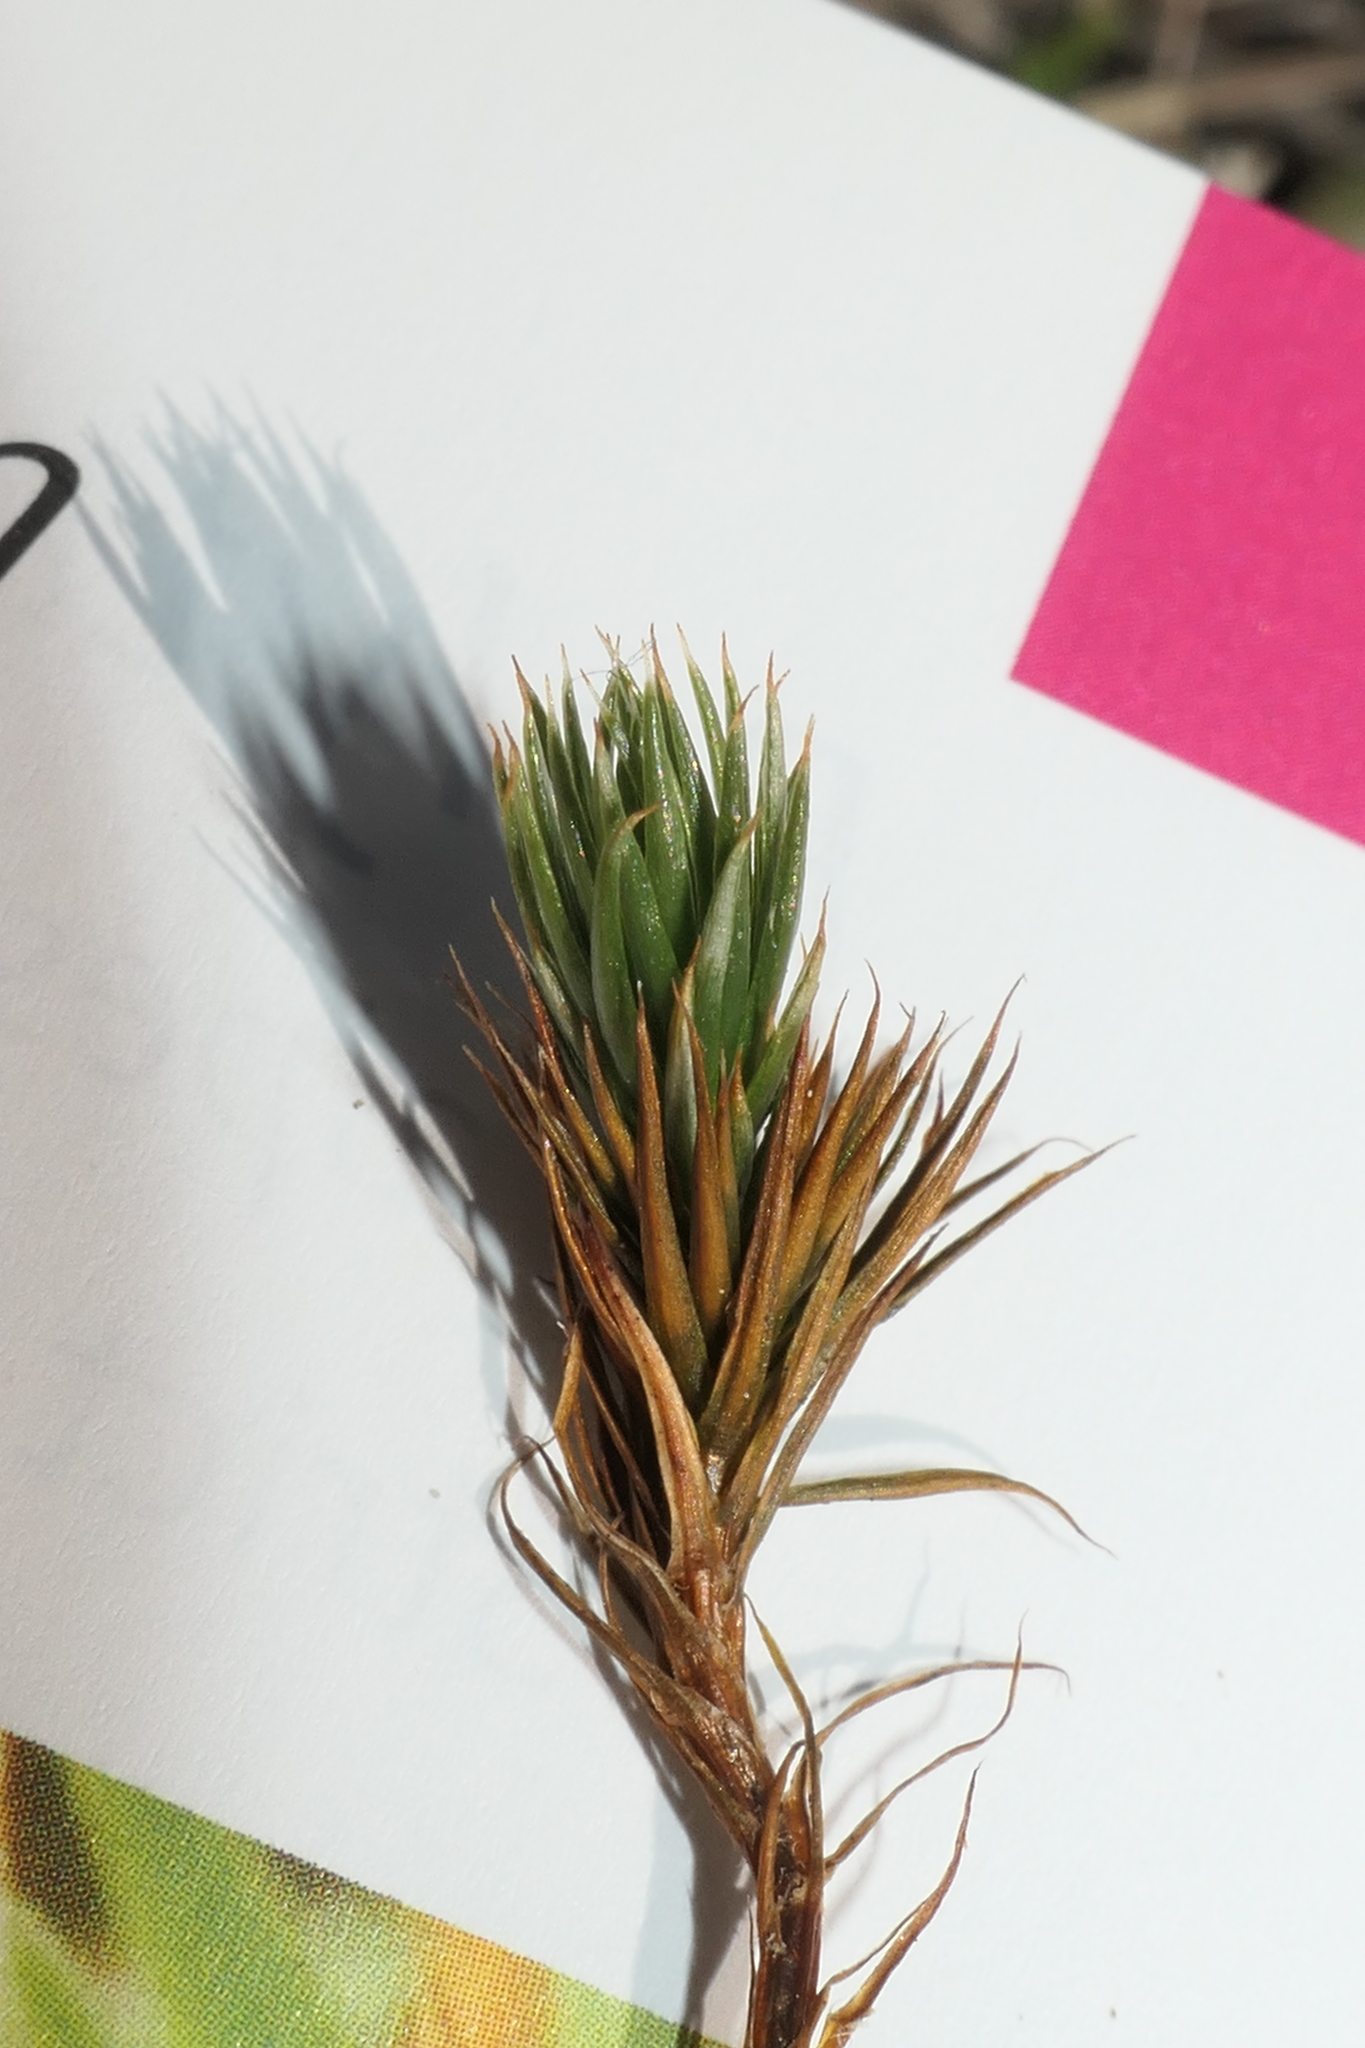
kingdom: Plantae
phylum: Bryophyta
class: Polytrichopsida
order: Polytrichales
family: Polytrichaceae
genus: Polytrichum
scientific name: Polytrichum juniperinum
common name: Juniper haircap moss
